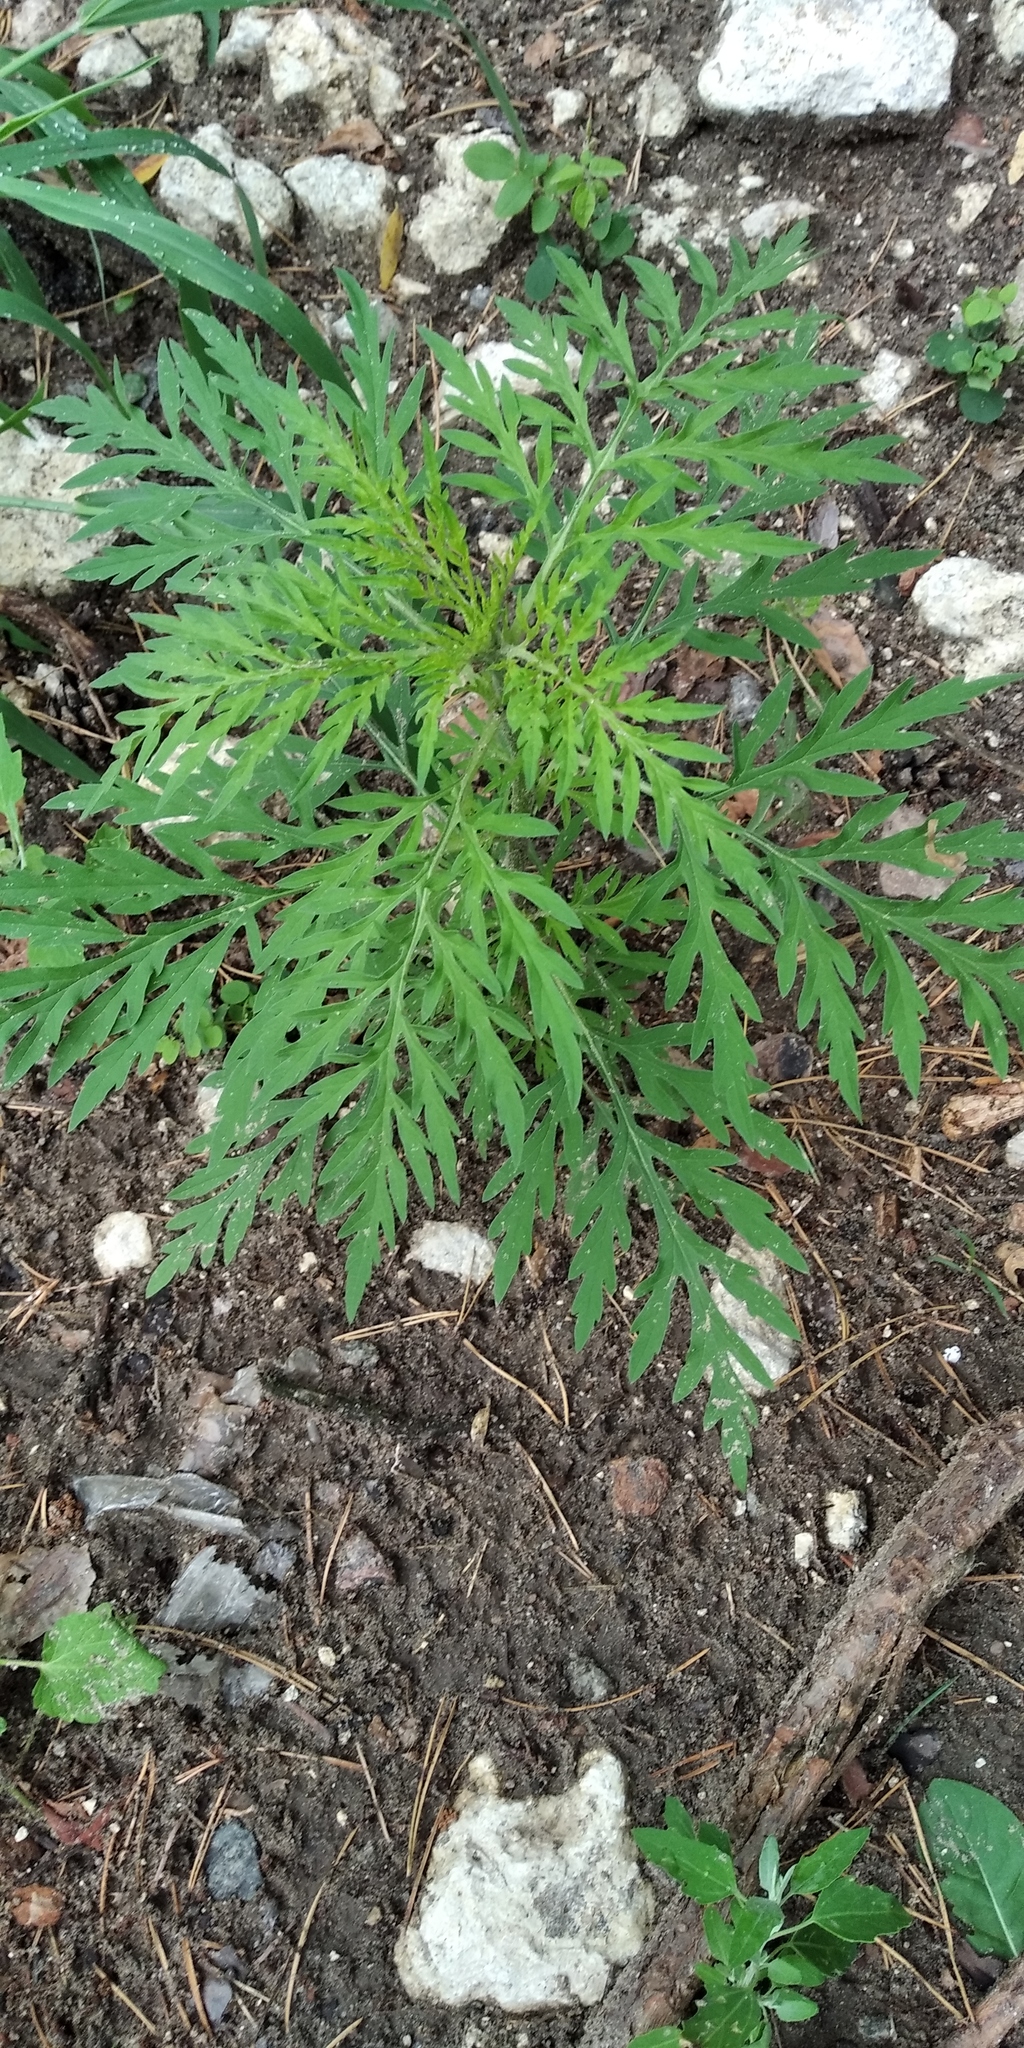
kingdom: Plantae
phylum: Tracheophyta
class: Magnoliopsida
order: Asterales
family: Asteraceae
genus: Ambrosia
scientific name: Ambrosia artemisiifolia
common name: Annual ragweed
